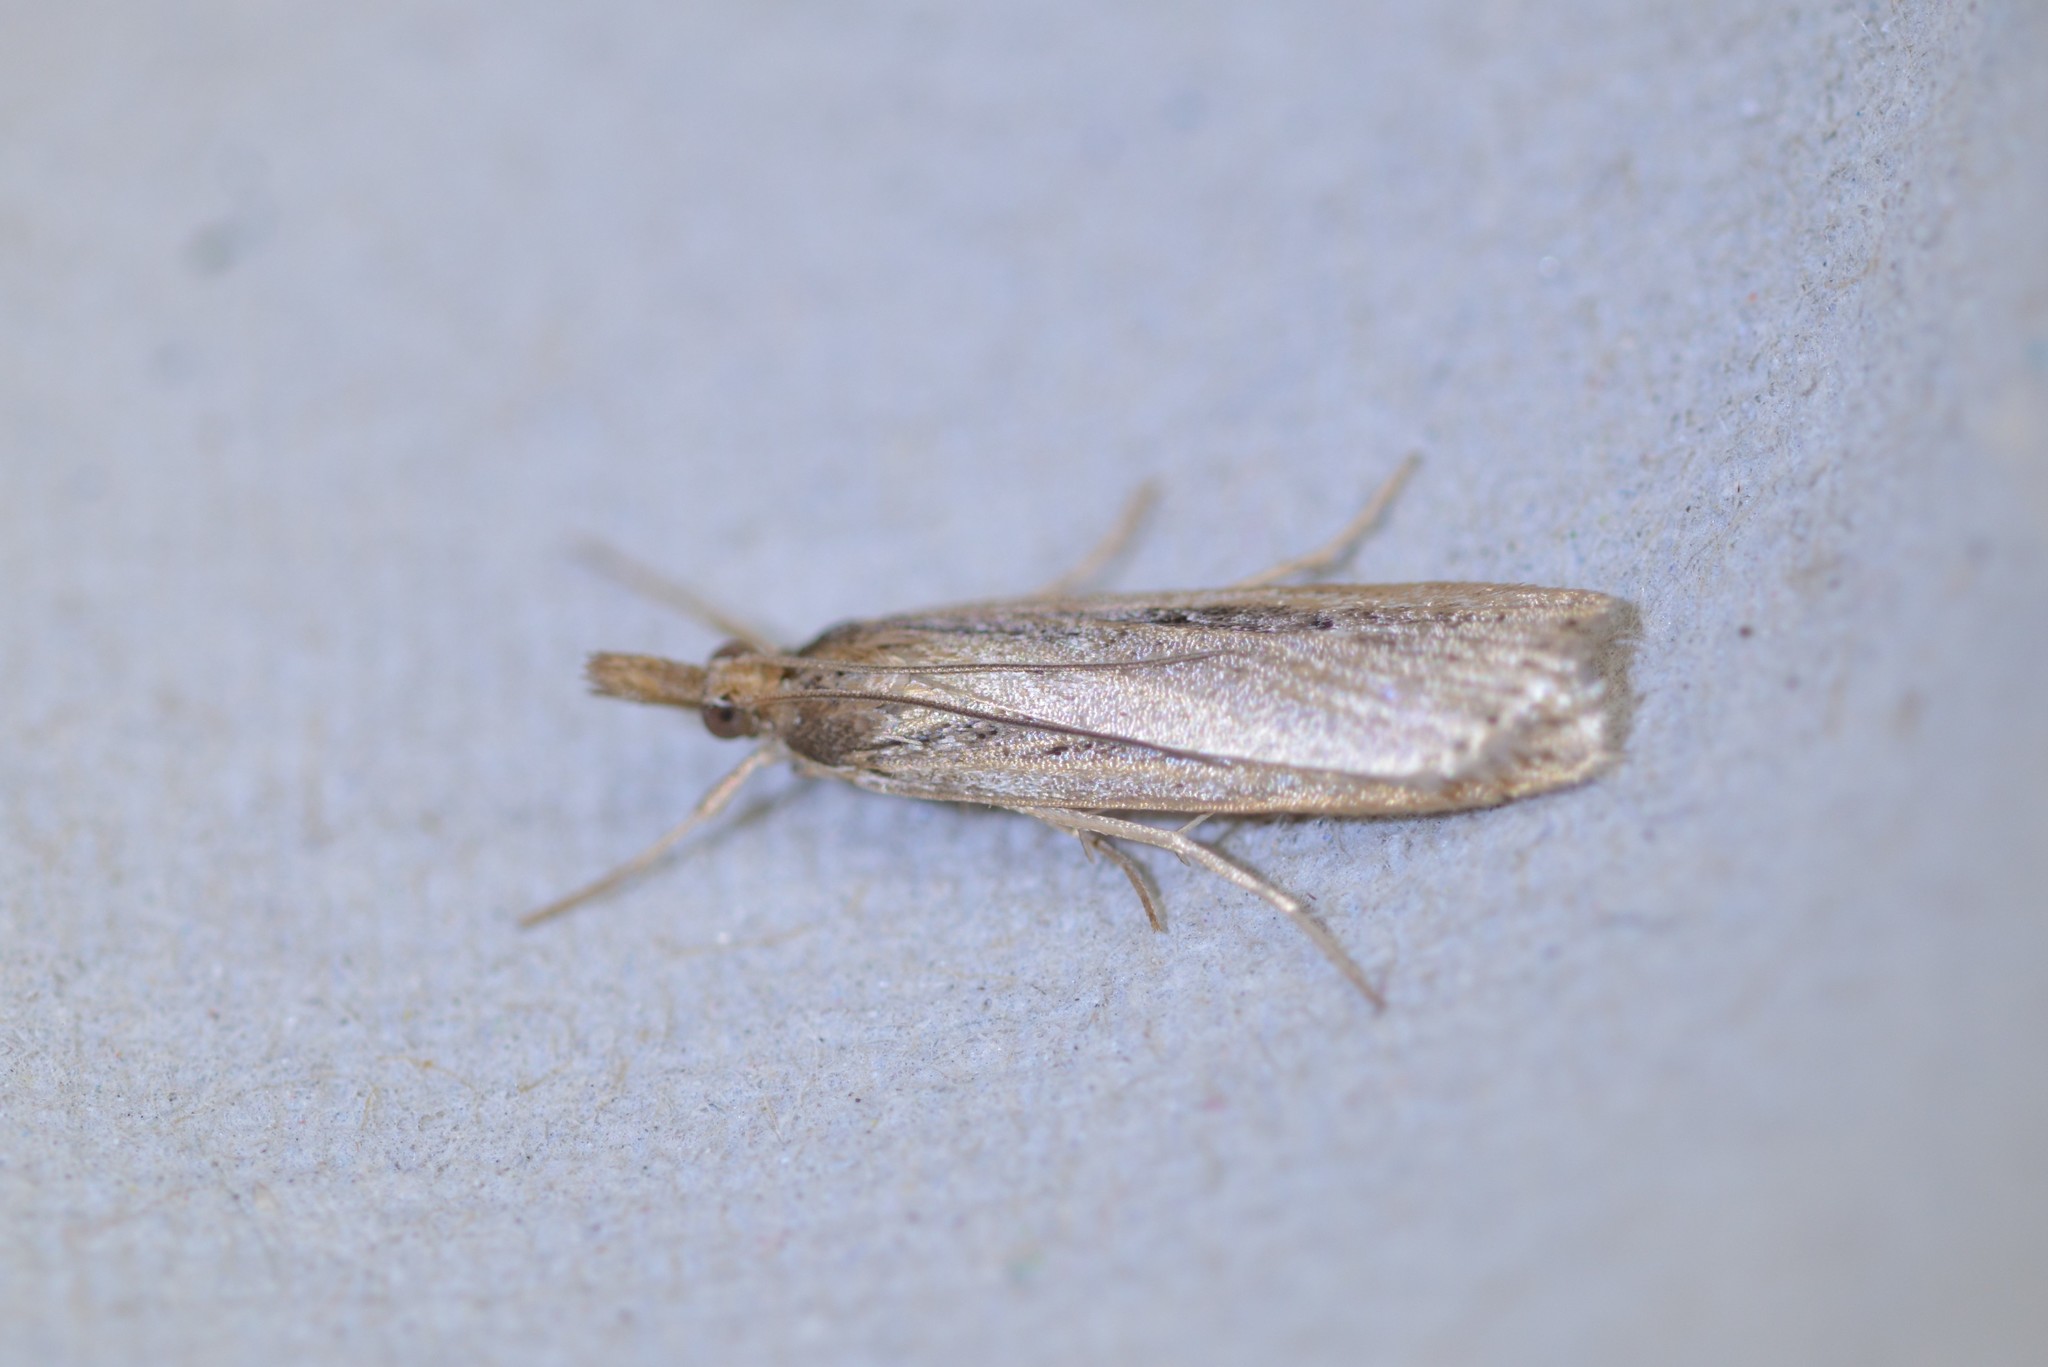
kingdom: Animalia
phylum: Arthropoda
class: Insecta
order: Lepidoptera
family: Crambidae
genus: Eudonia
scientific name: Eudonia sabulosella
